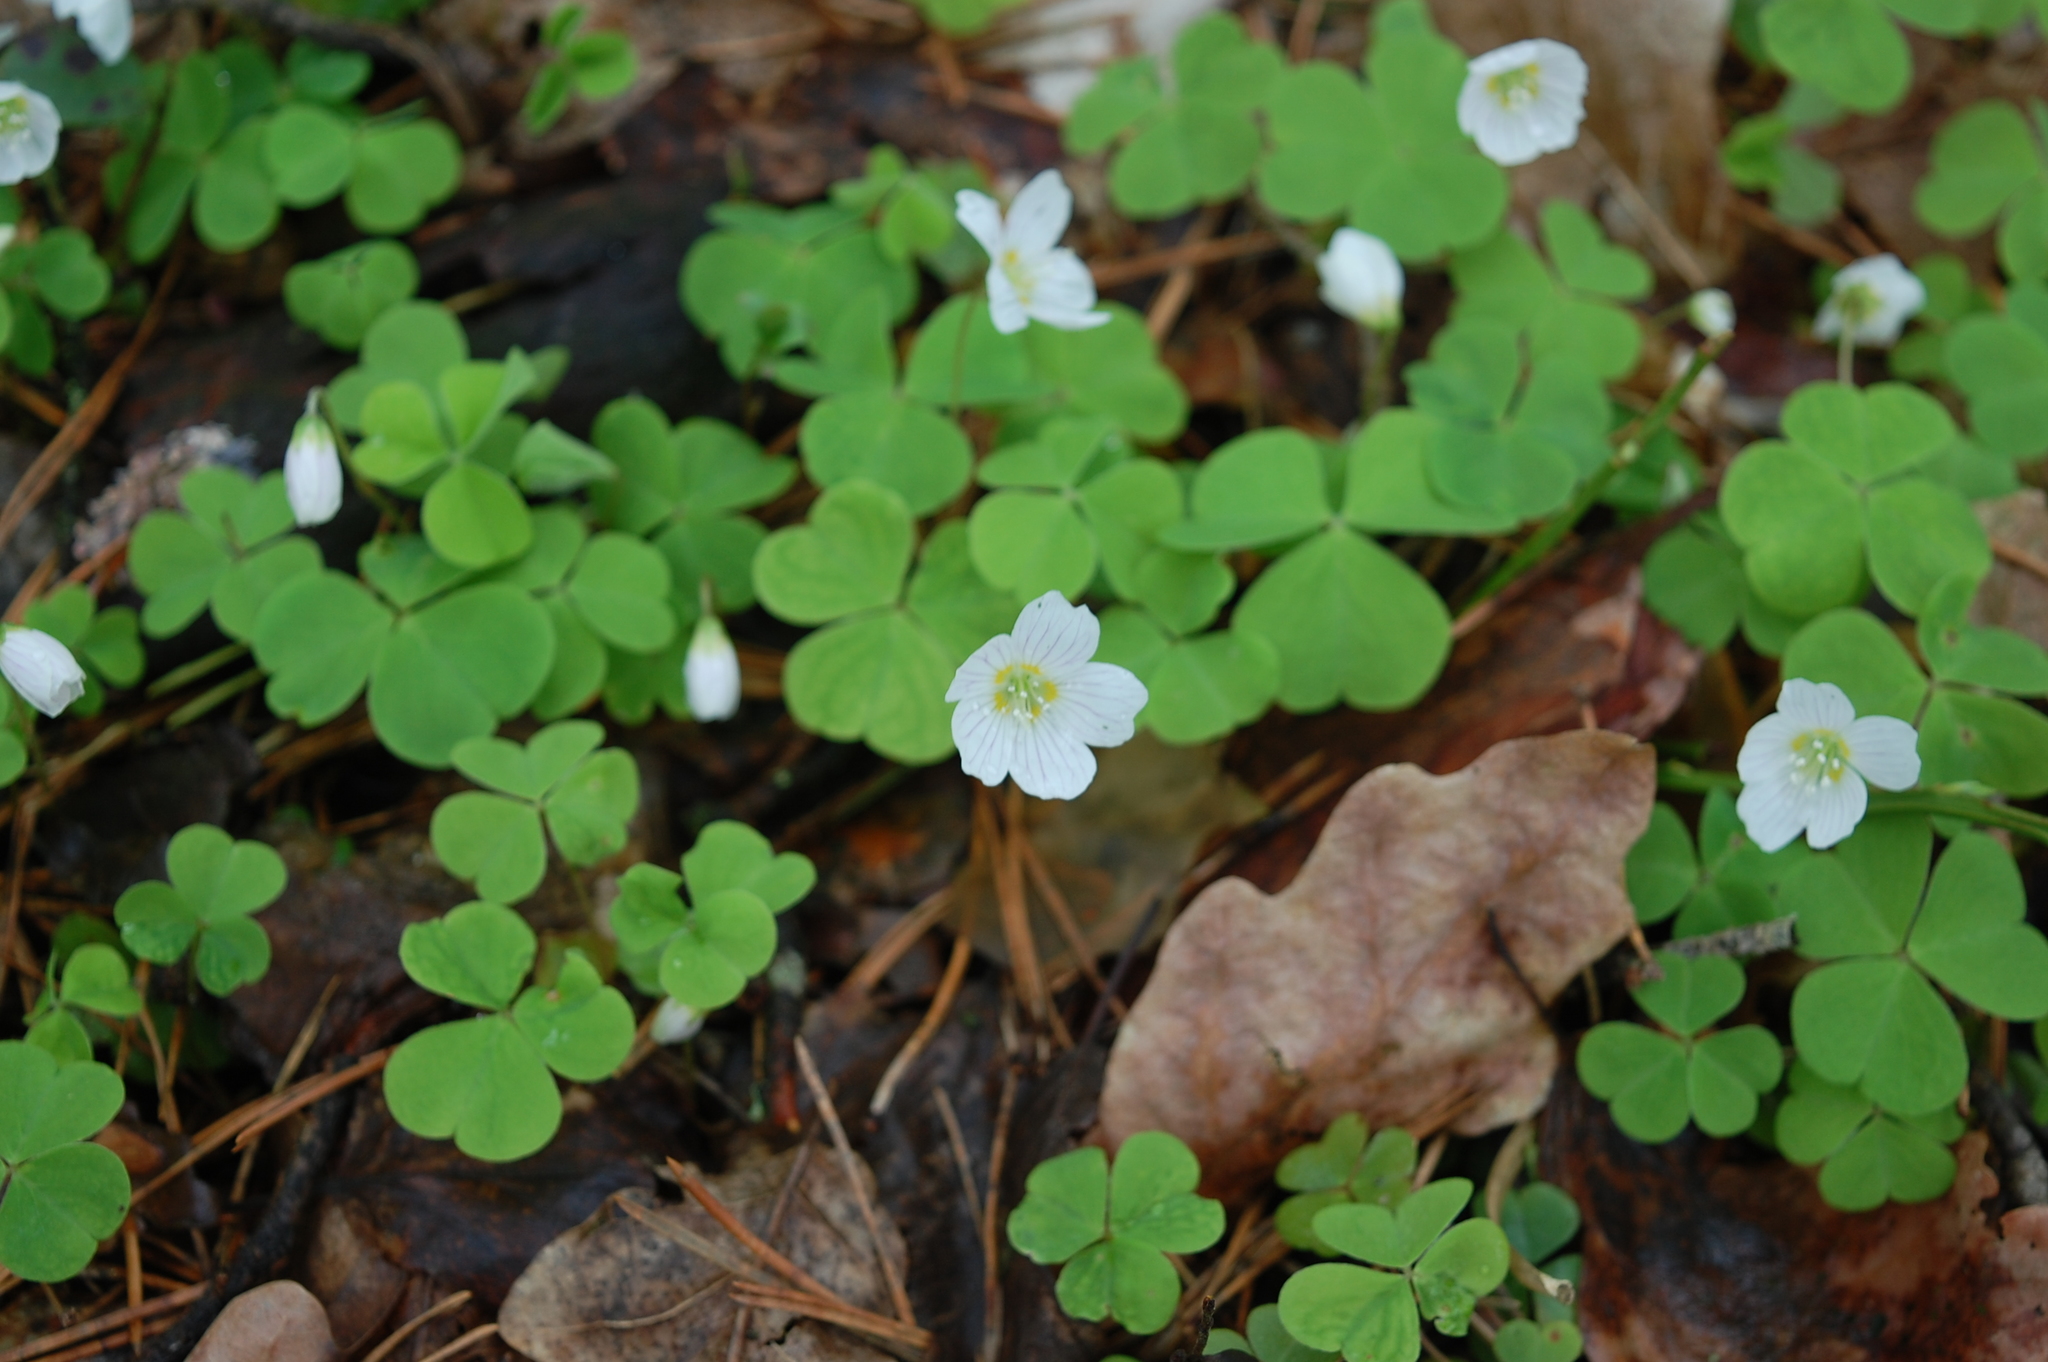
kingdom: Plantae
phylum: Tracheophyta
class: Magnoliopsida
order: Oxalidales
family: Oxalidaceae
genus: Oxalis
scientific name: Oxalis acetosella
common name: Wood-sorrel
